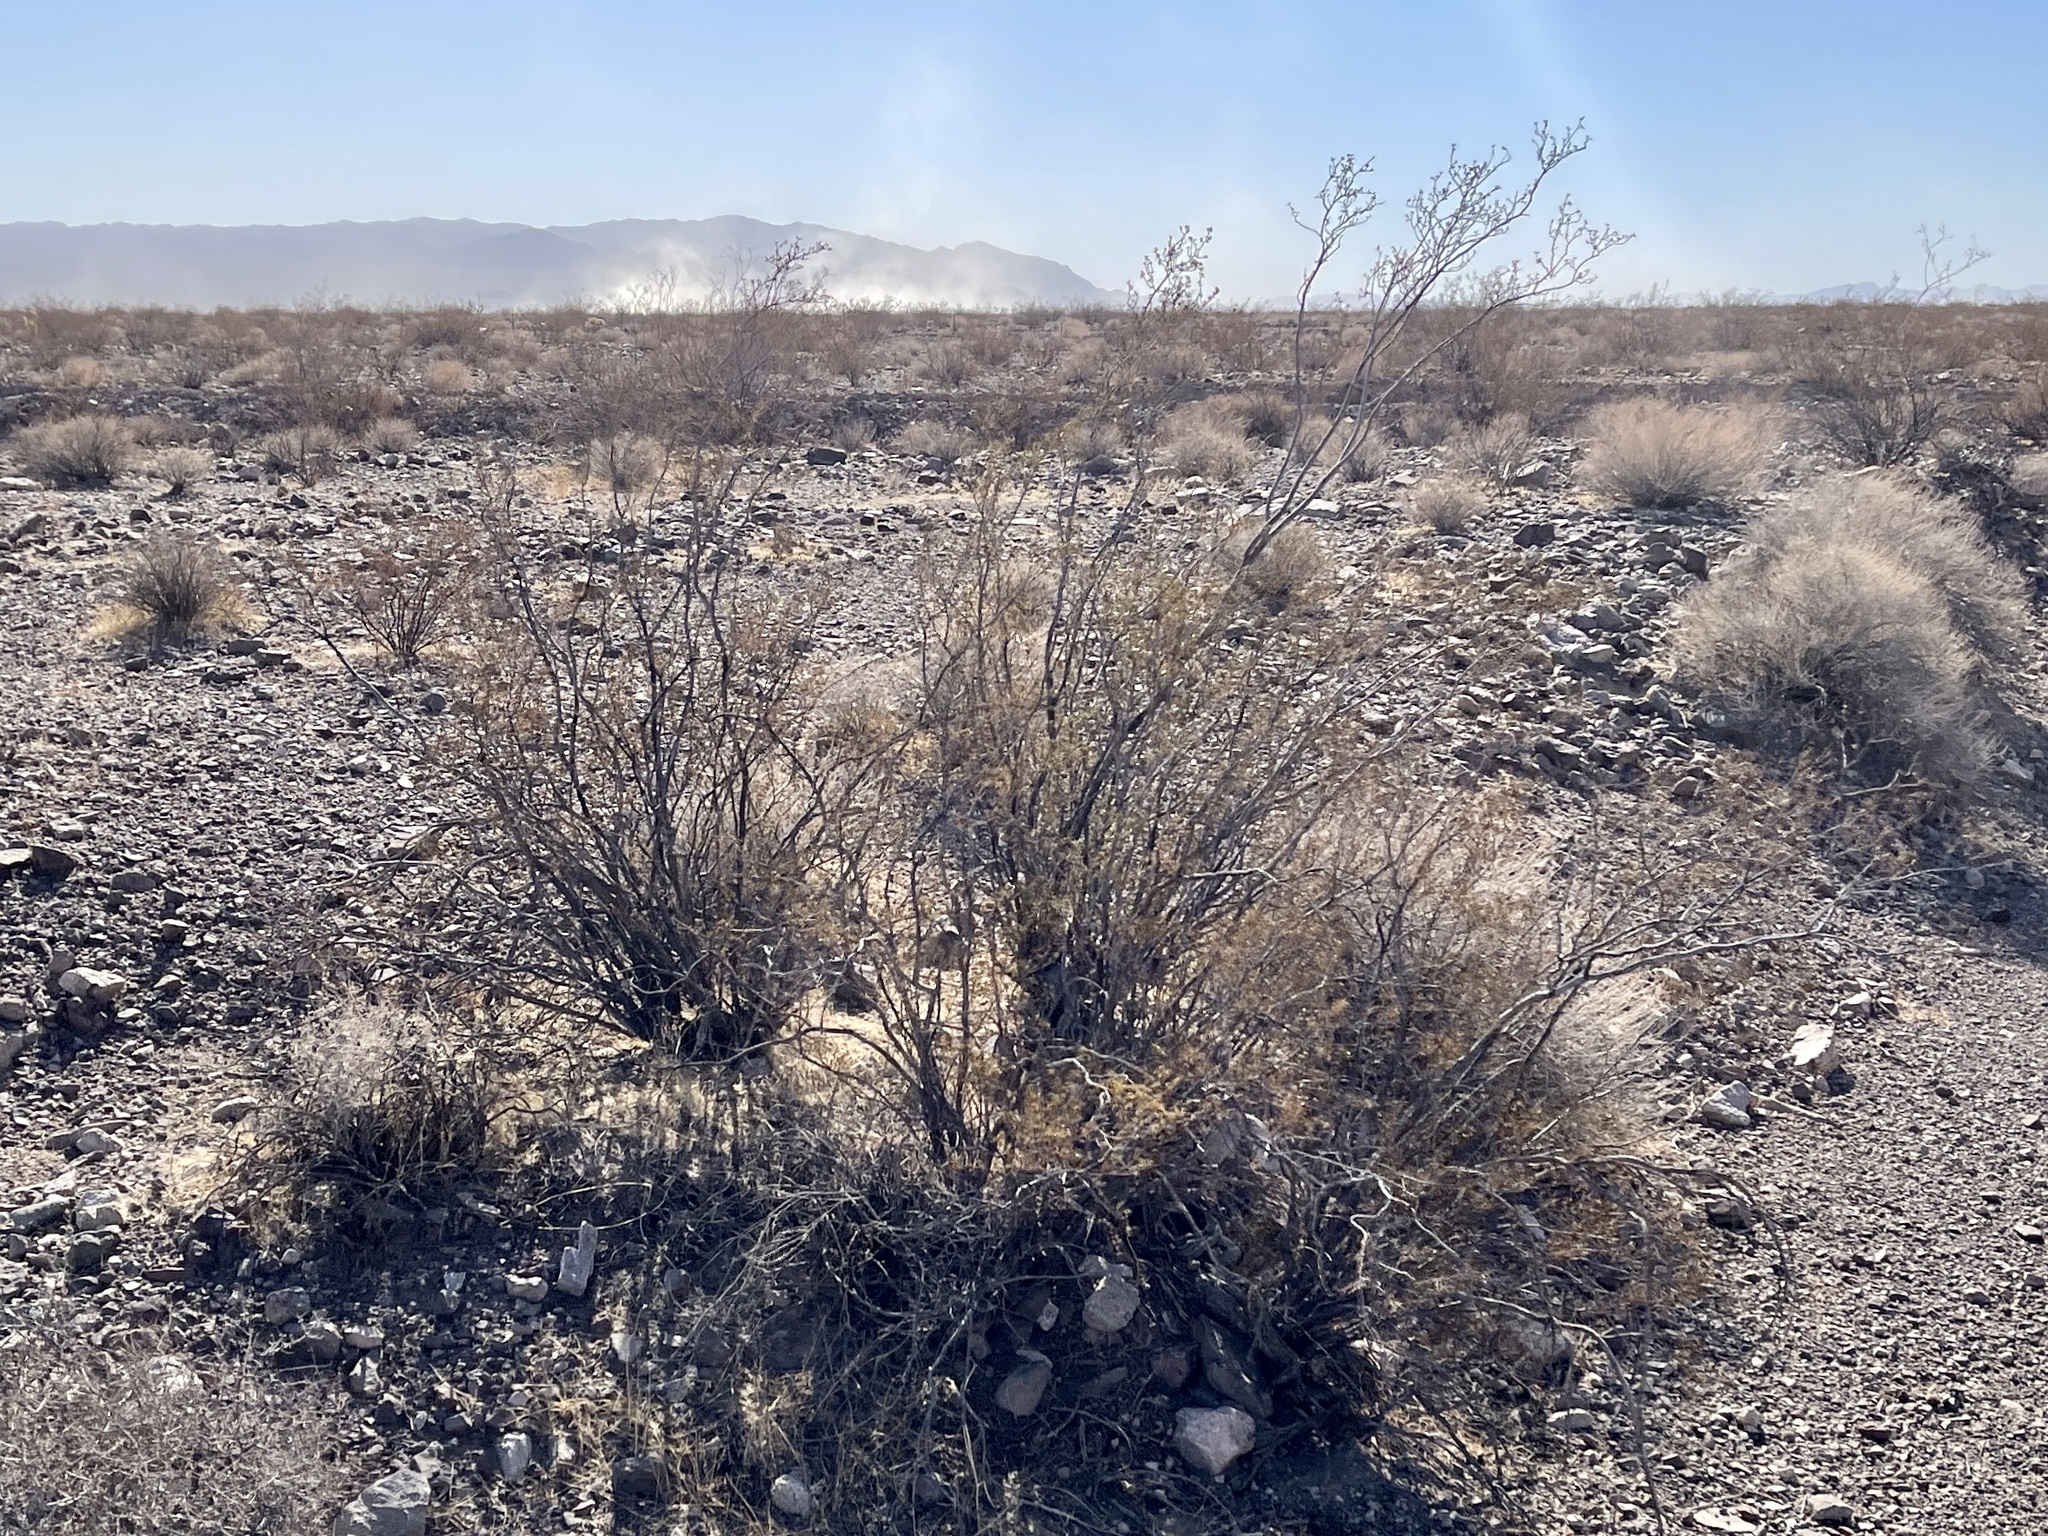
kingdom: Plantae
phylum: Tracheophyta
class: Magnoliopsida
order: Zygophyllales
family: Zygophyllaceae
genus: Larrea
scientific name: Larrea tridentata
